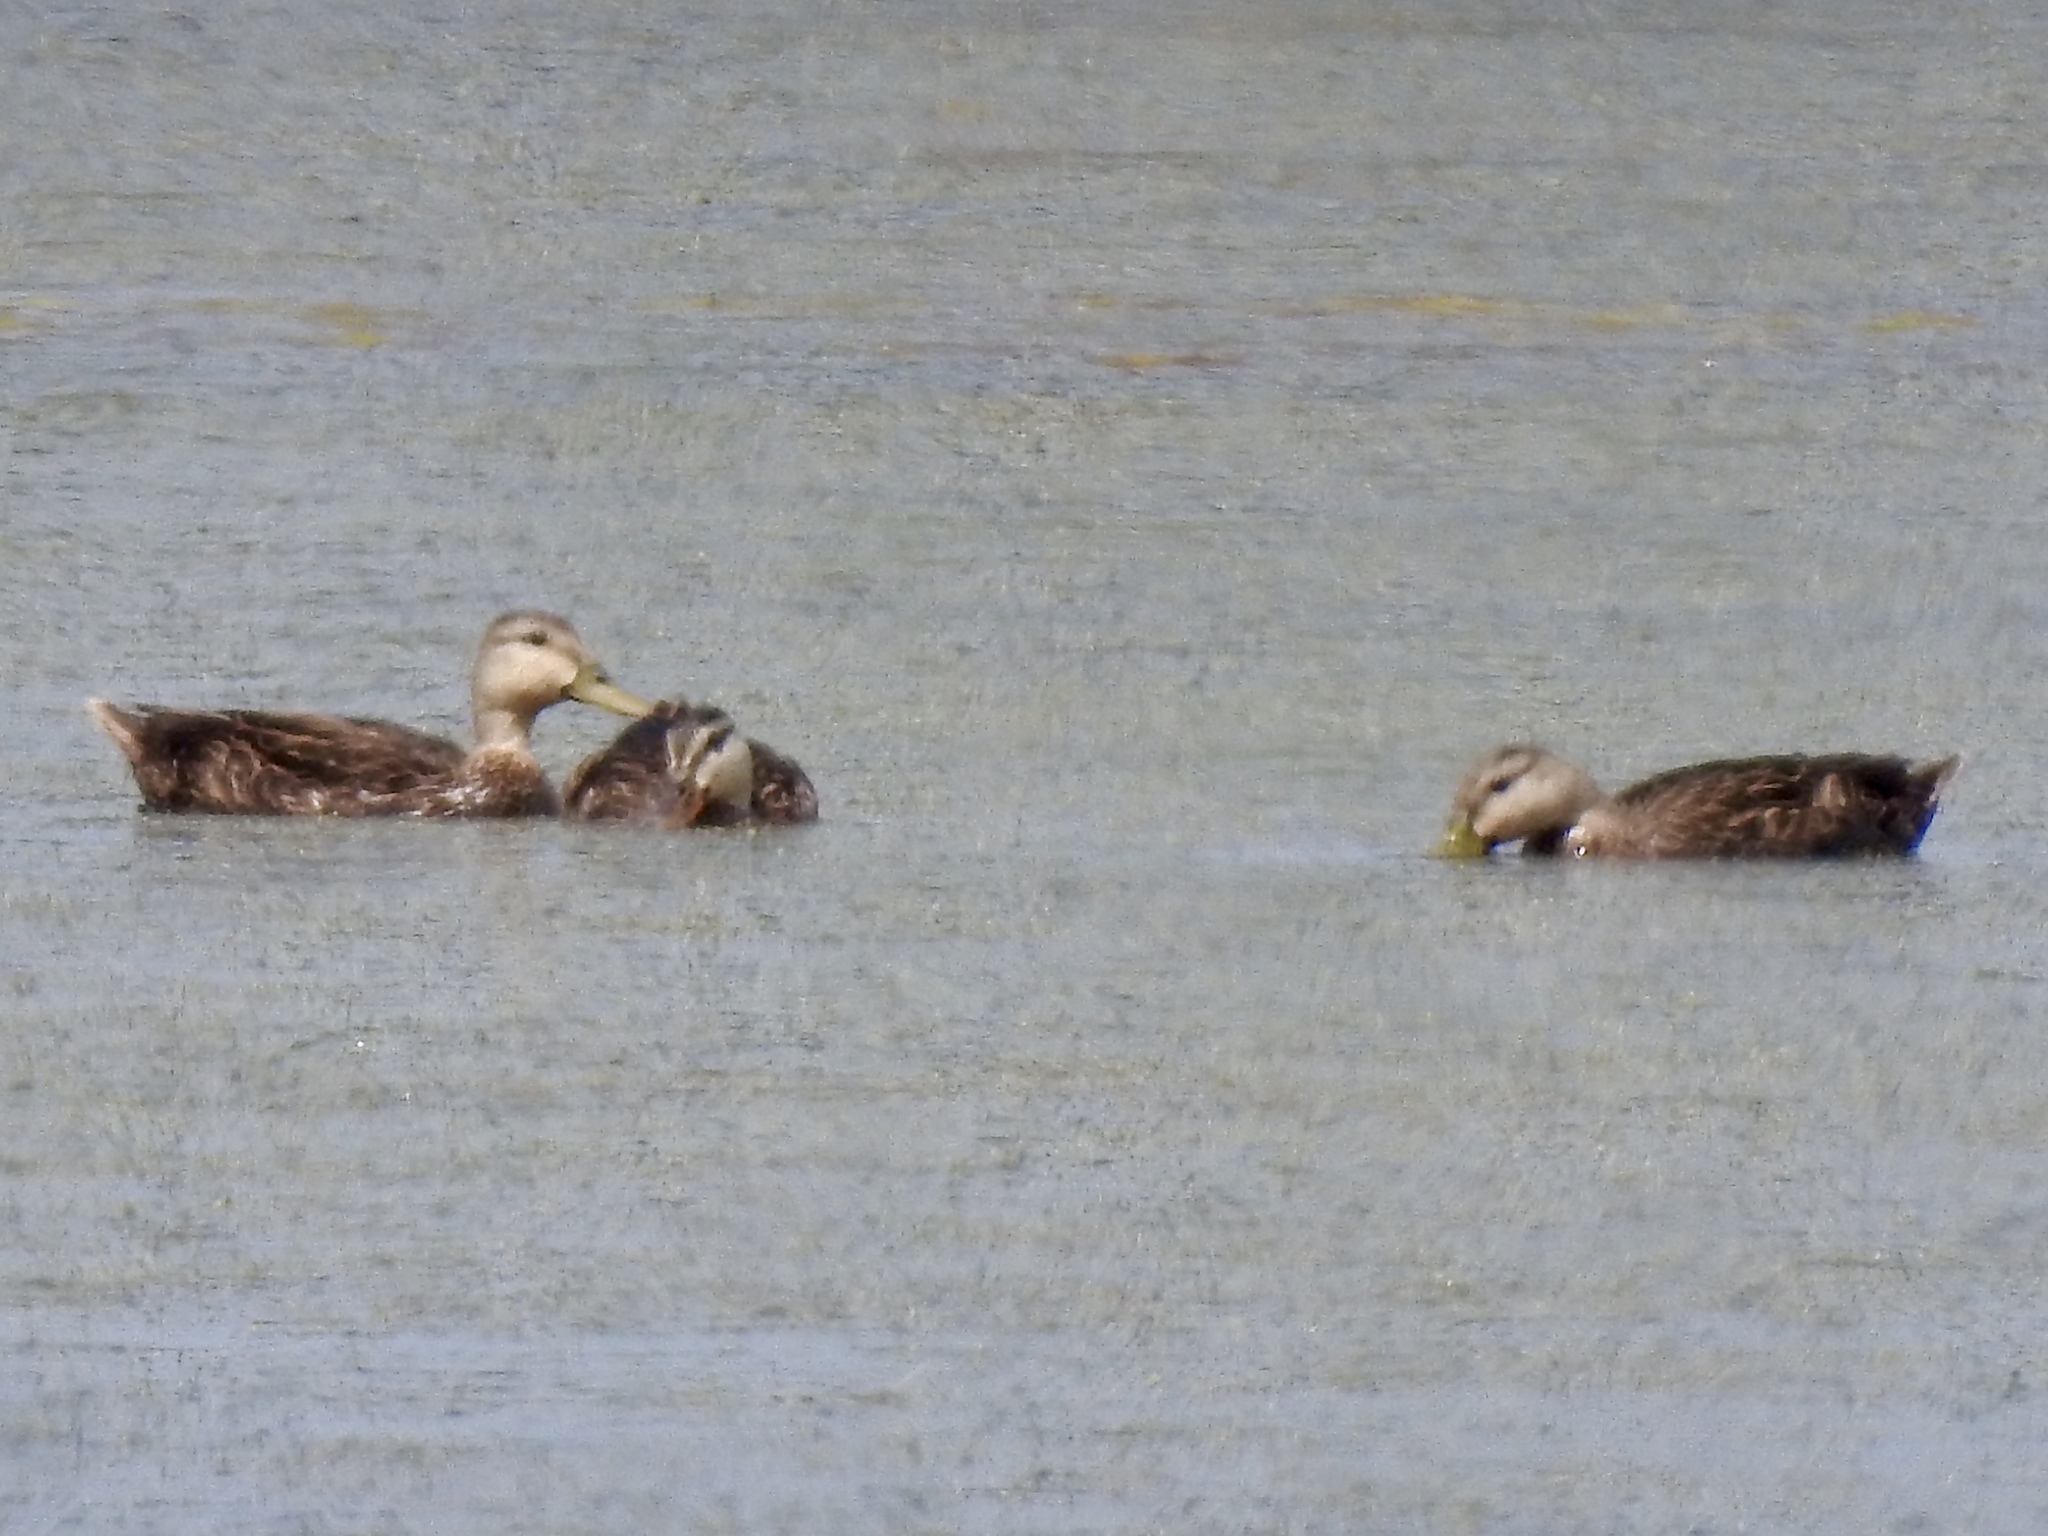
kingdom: Animalia
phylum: Chordata
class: Aves
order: Anseriformes
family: Anatidae
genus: Anas
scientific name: Anas fulvigula
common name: Mottled duck
